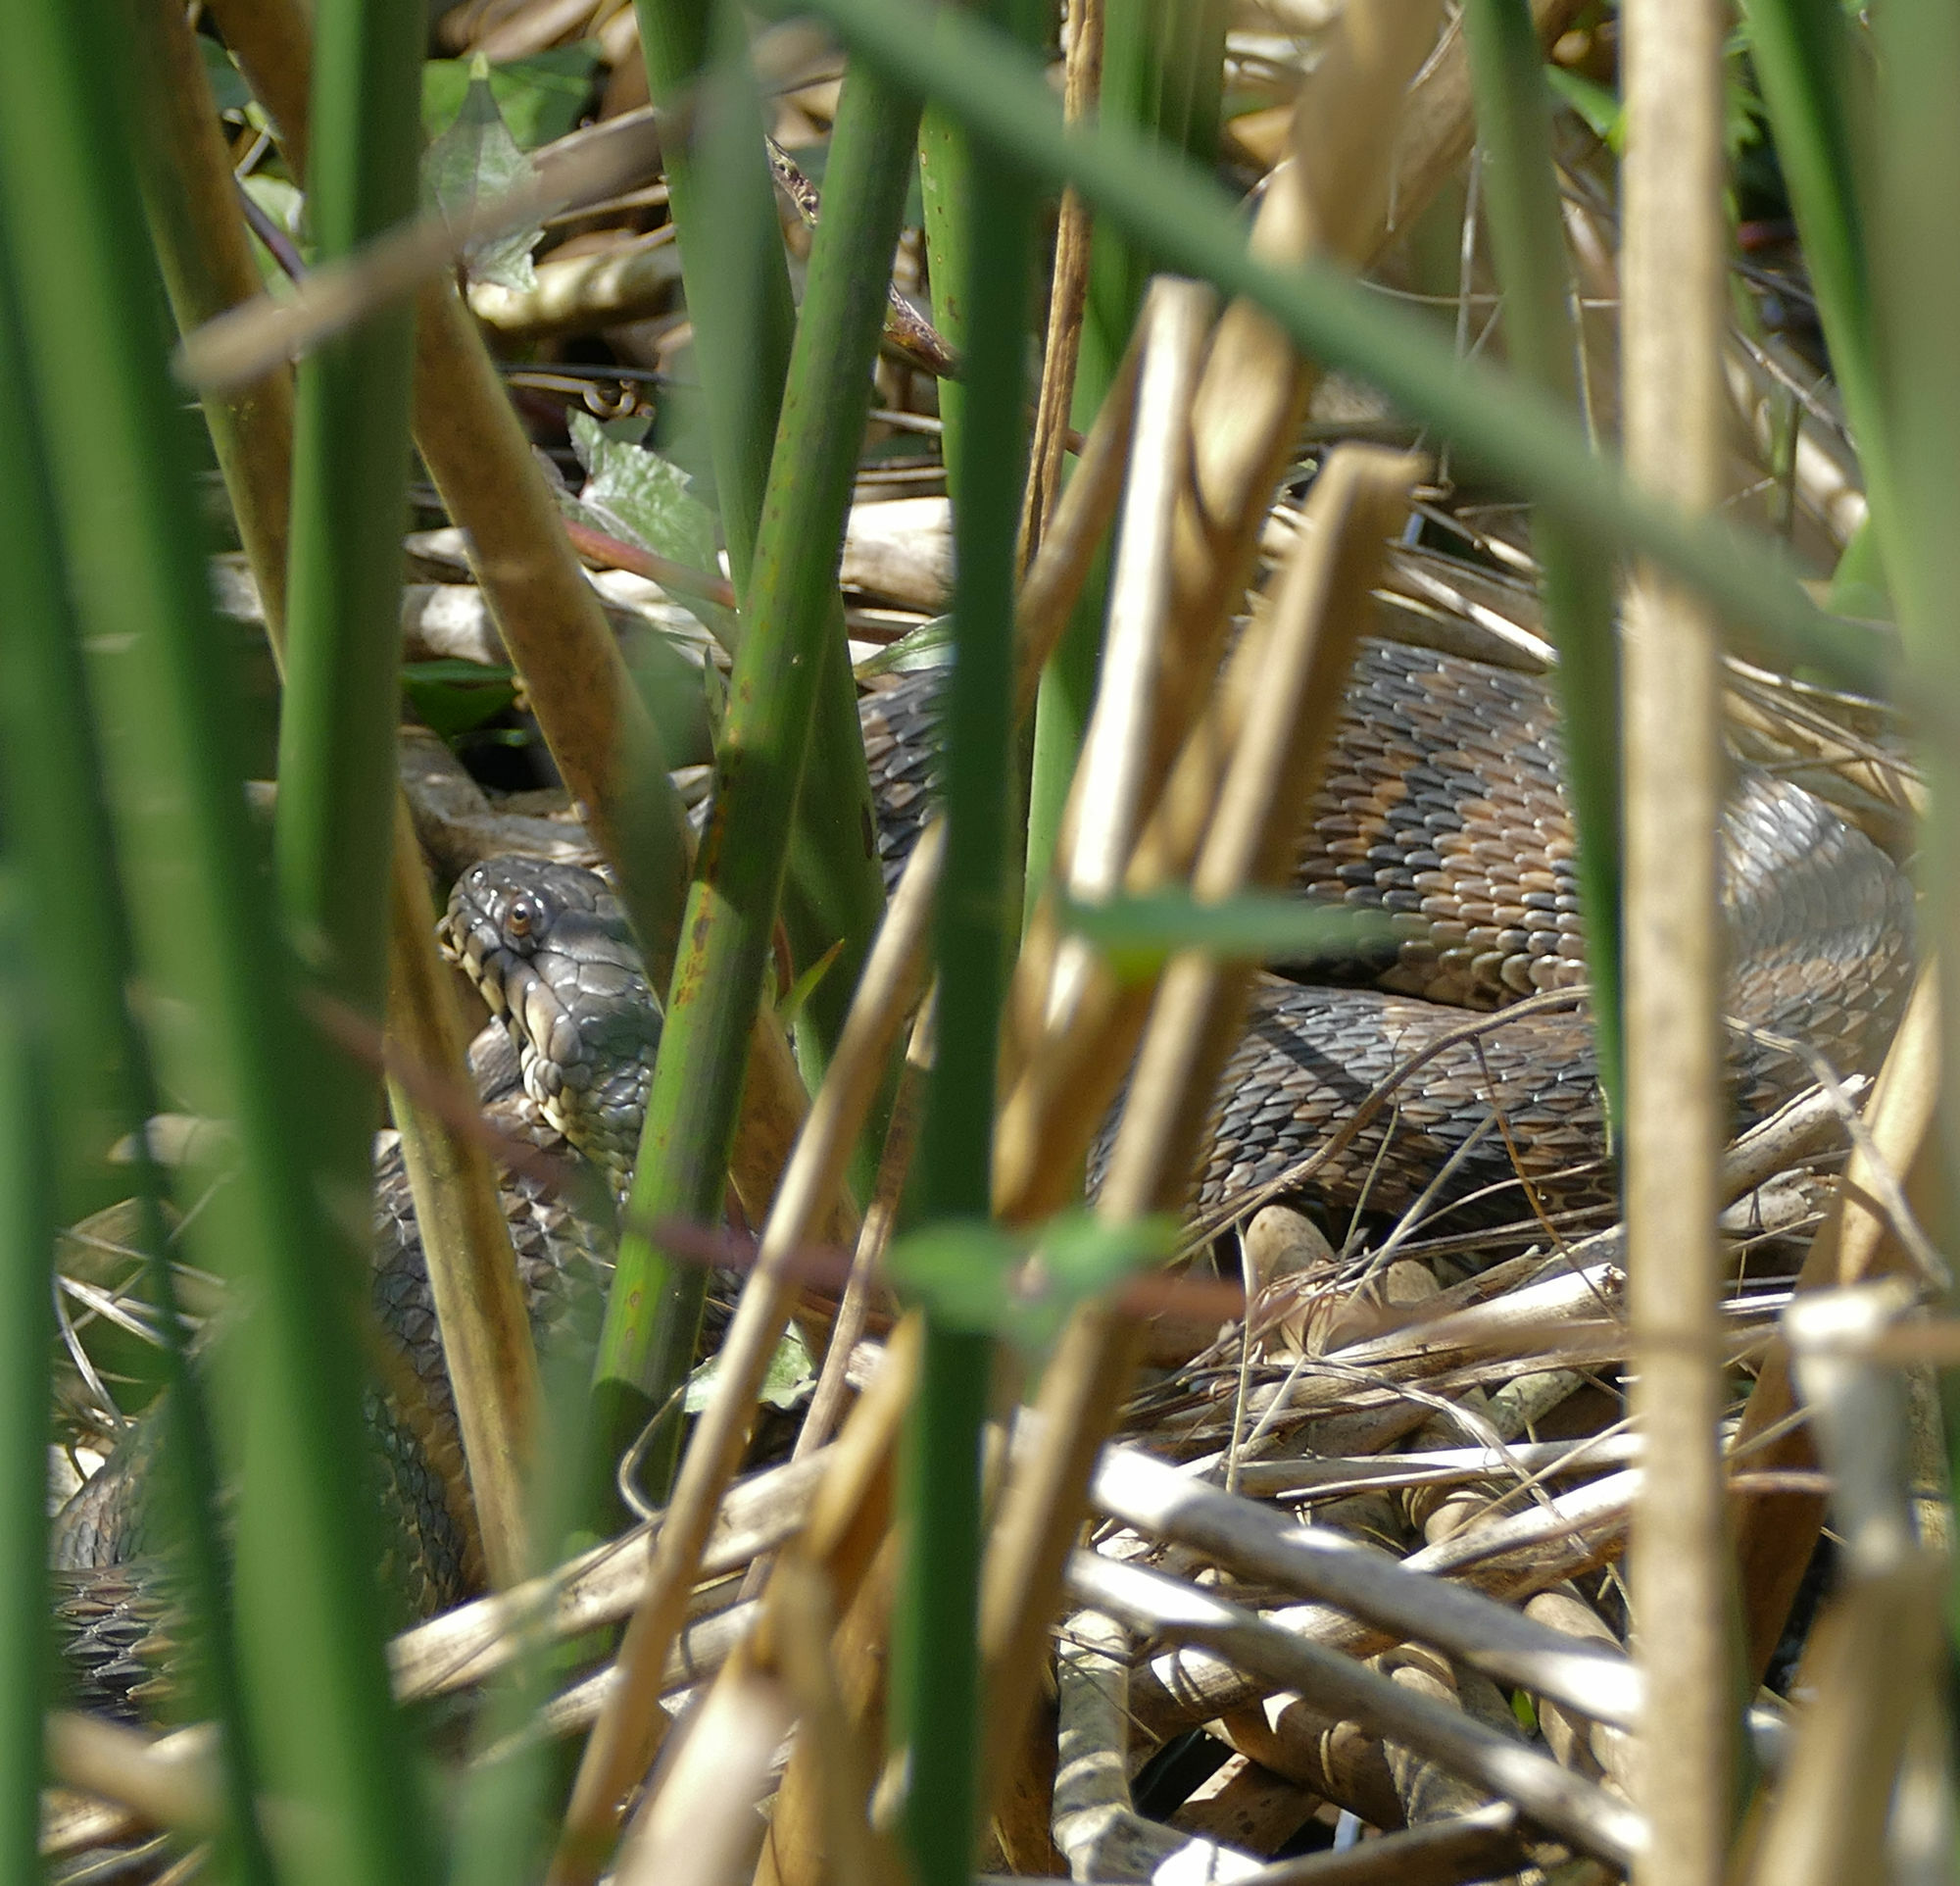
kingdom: Animalia
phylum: Chordata
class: Squamata
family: Colubridae
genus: Nerodia
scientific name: Nerodia rhombifer
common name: Diamondback water snake
